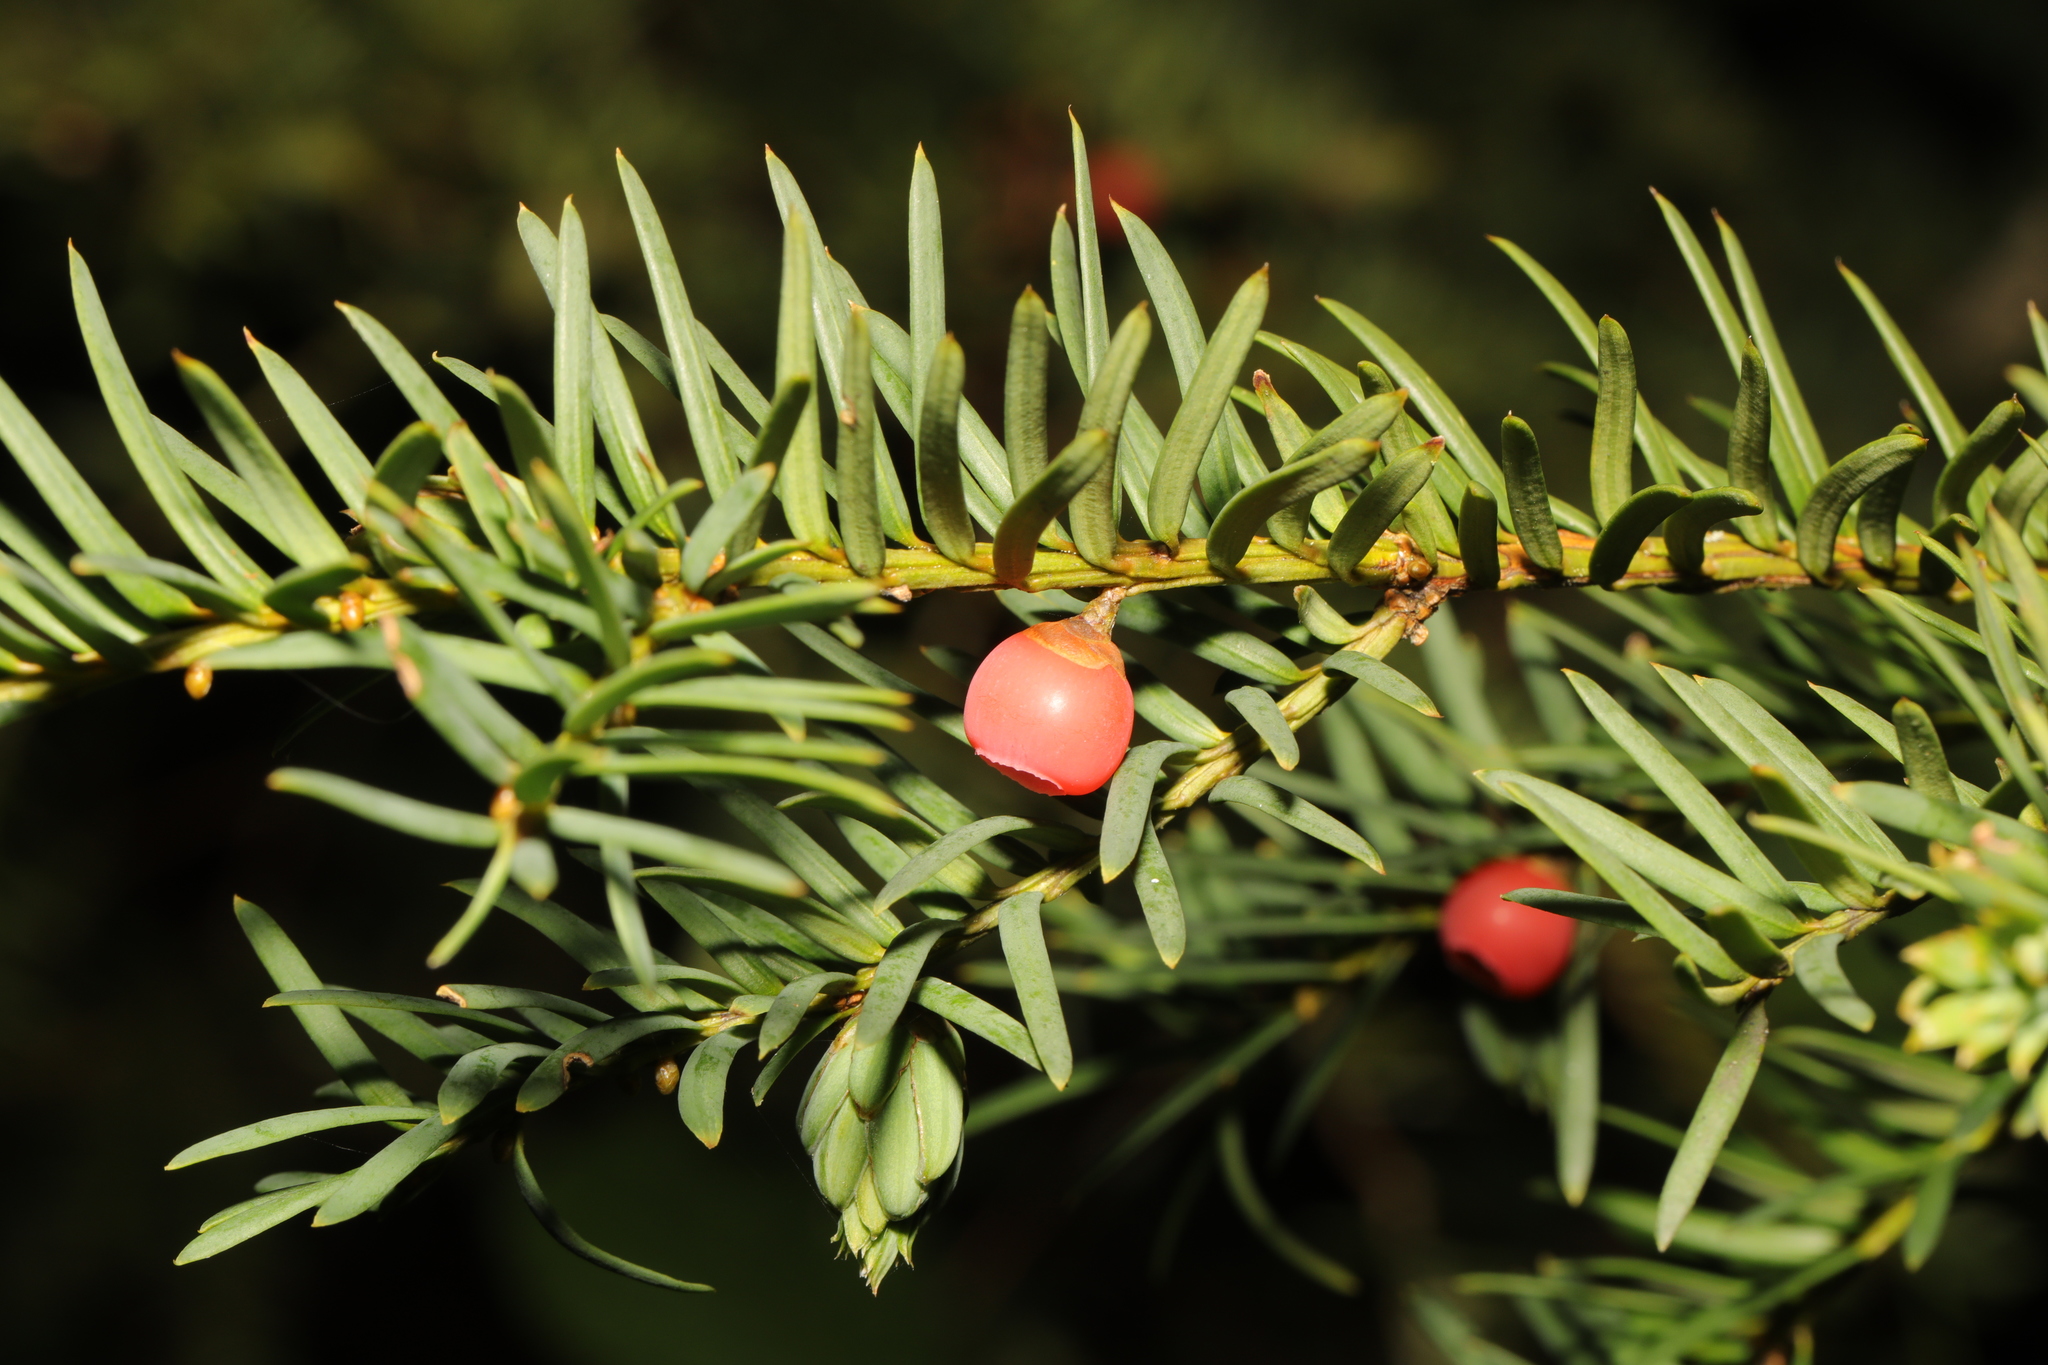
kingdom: Plantae
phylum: Tracheophyta
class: Pinopsida
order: Pinales
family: Taxaceae
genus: Taxus
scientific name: Taxus baccata
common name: Yew
